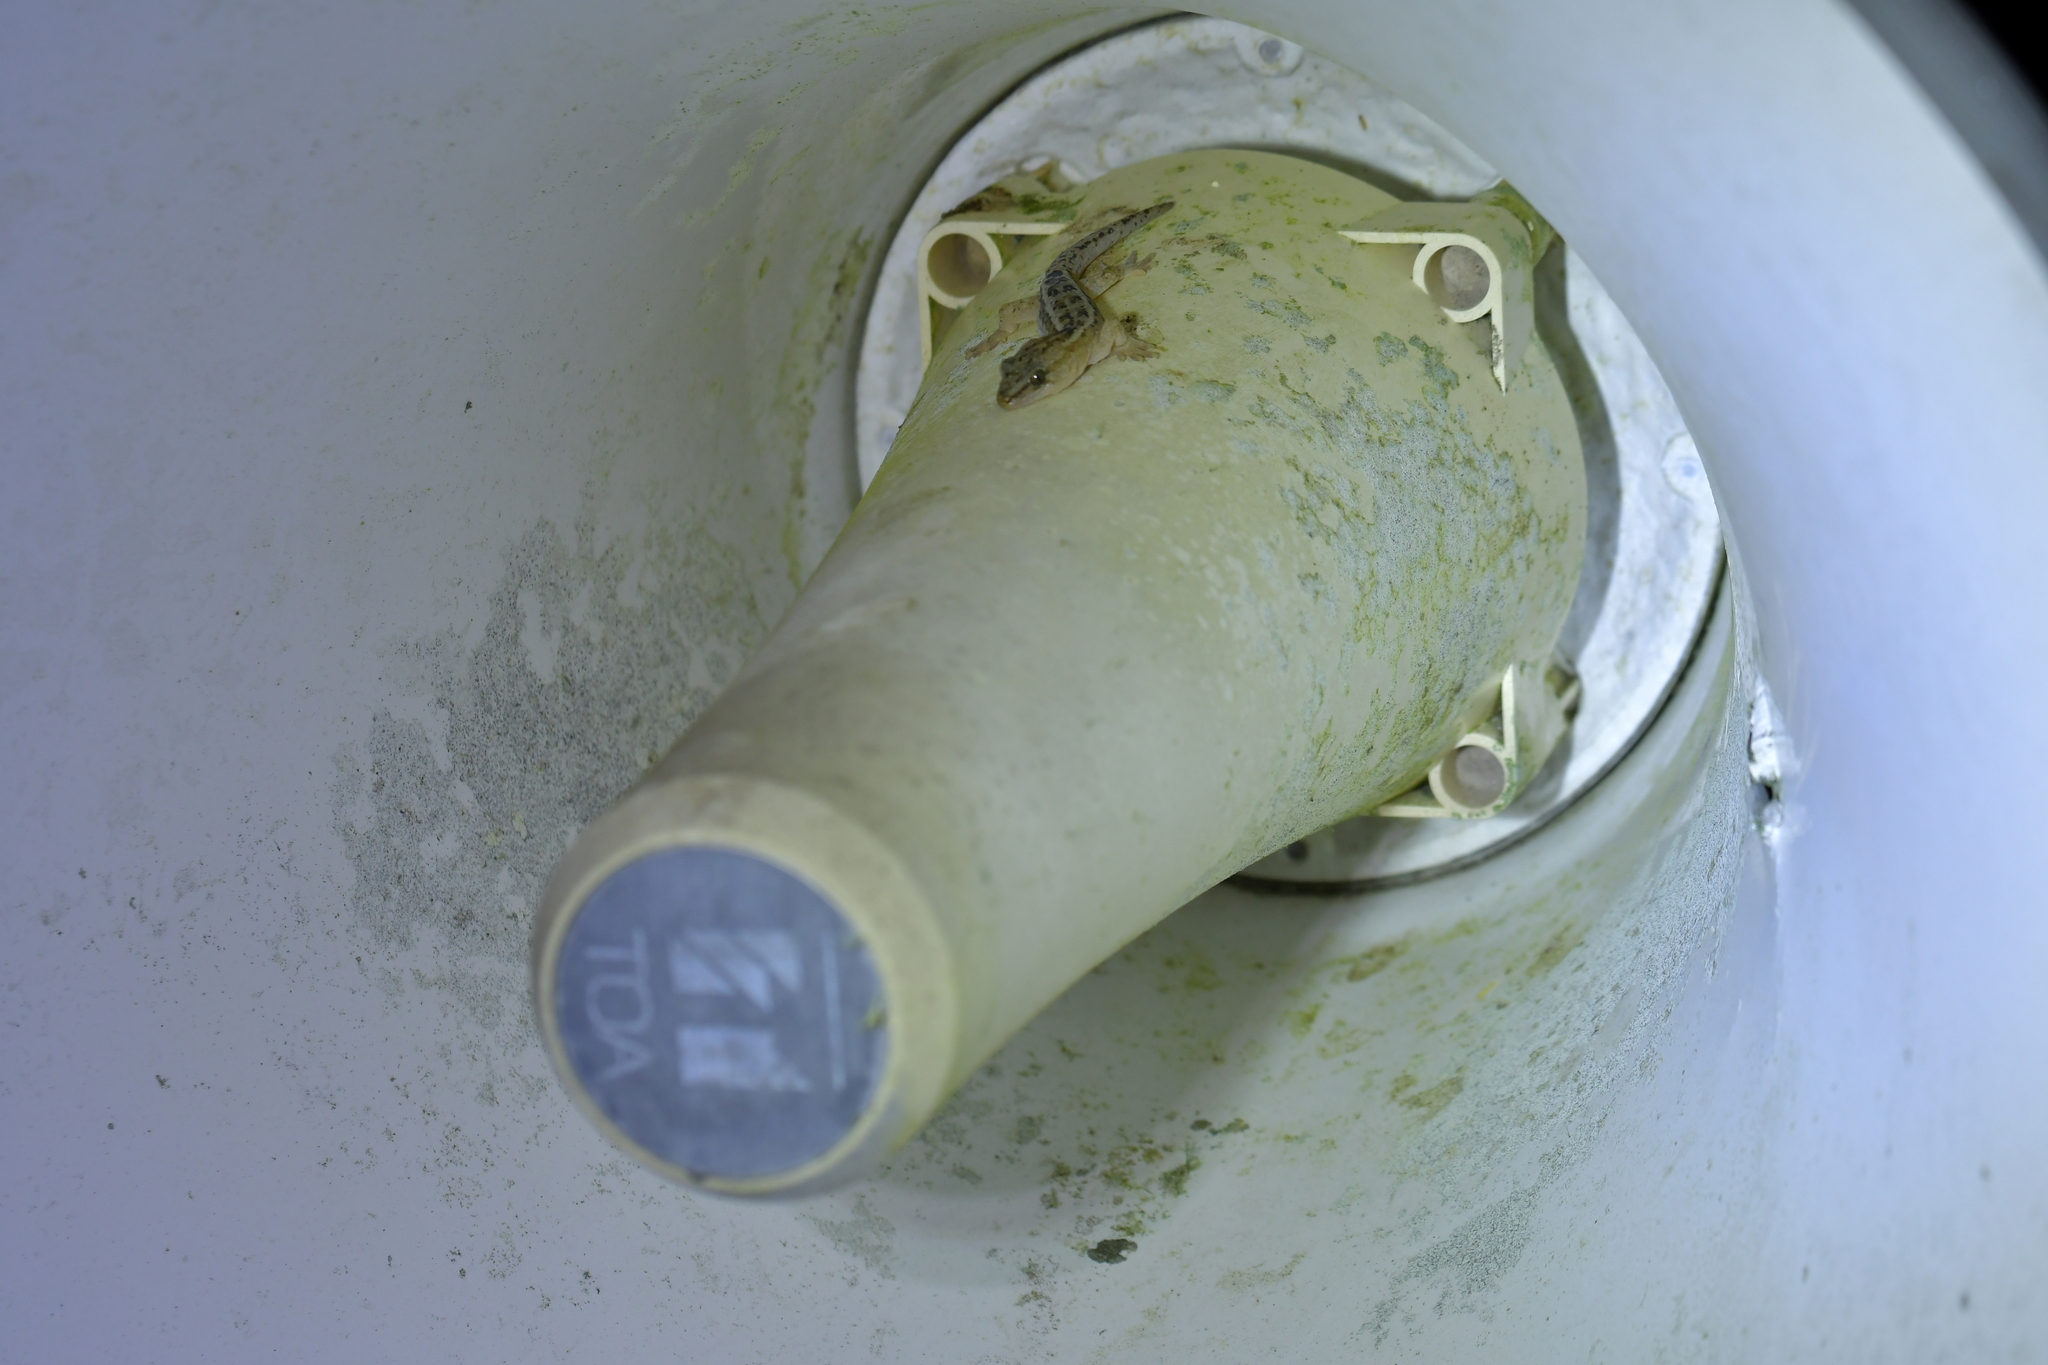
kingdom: Animalia
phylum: Chordata
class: Squamata
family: Diplodactylidae
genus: Woodworthia
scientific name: Woodworthia maculata
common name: Raukawa gecko
